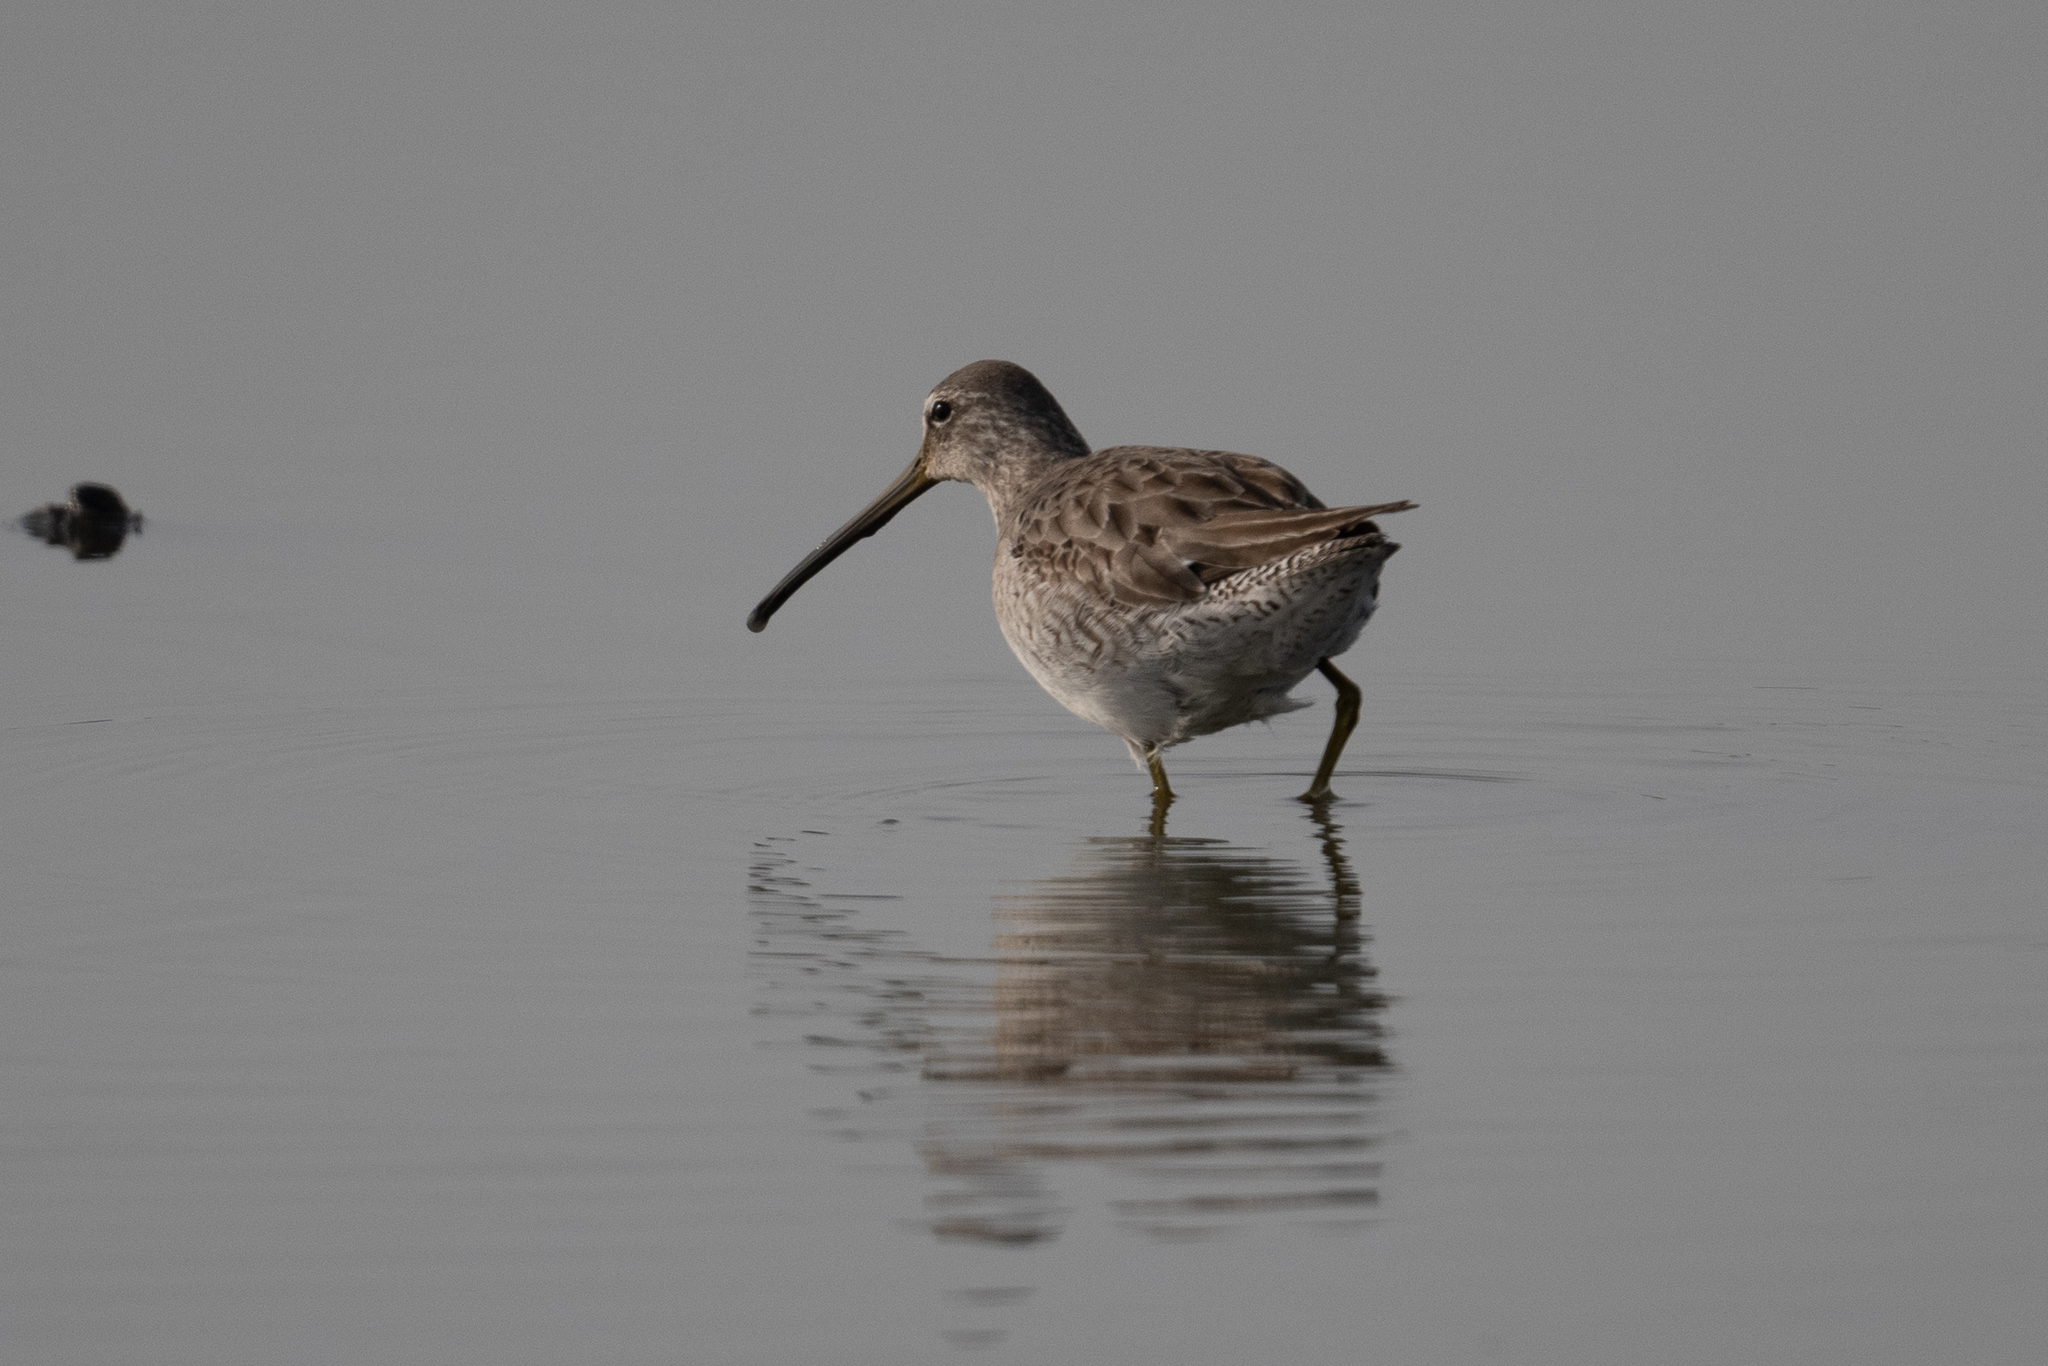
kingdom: Animalia
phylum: Chordata
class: Aves
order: Charadriiformes
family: Scolopacidae
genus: Limnodromus
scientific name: Limnodromus scolopaceus
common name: Long-billed dowitcher
